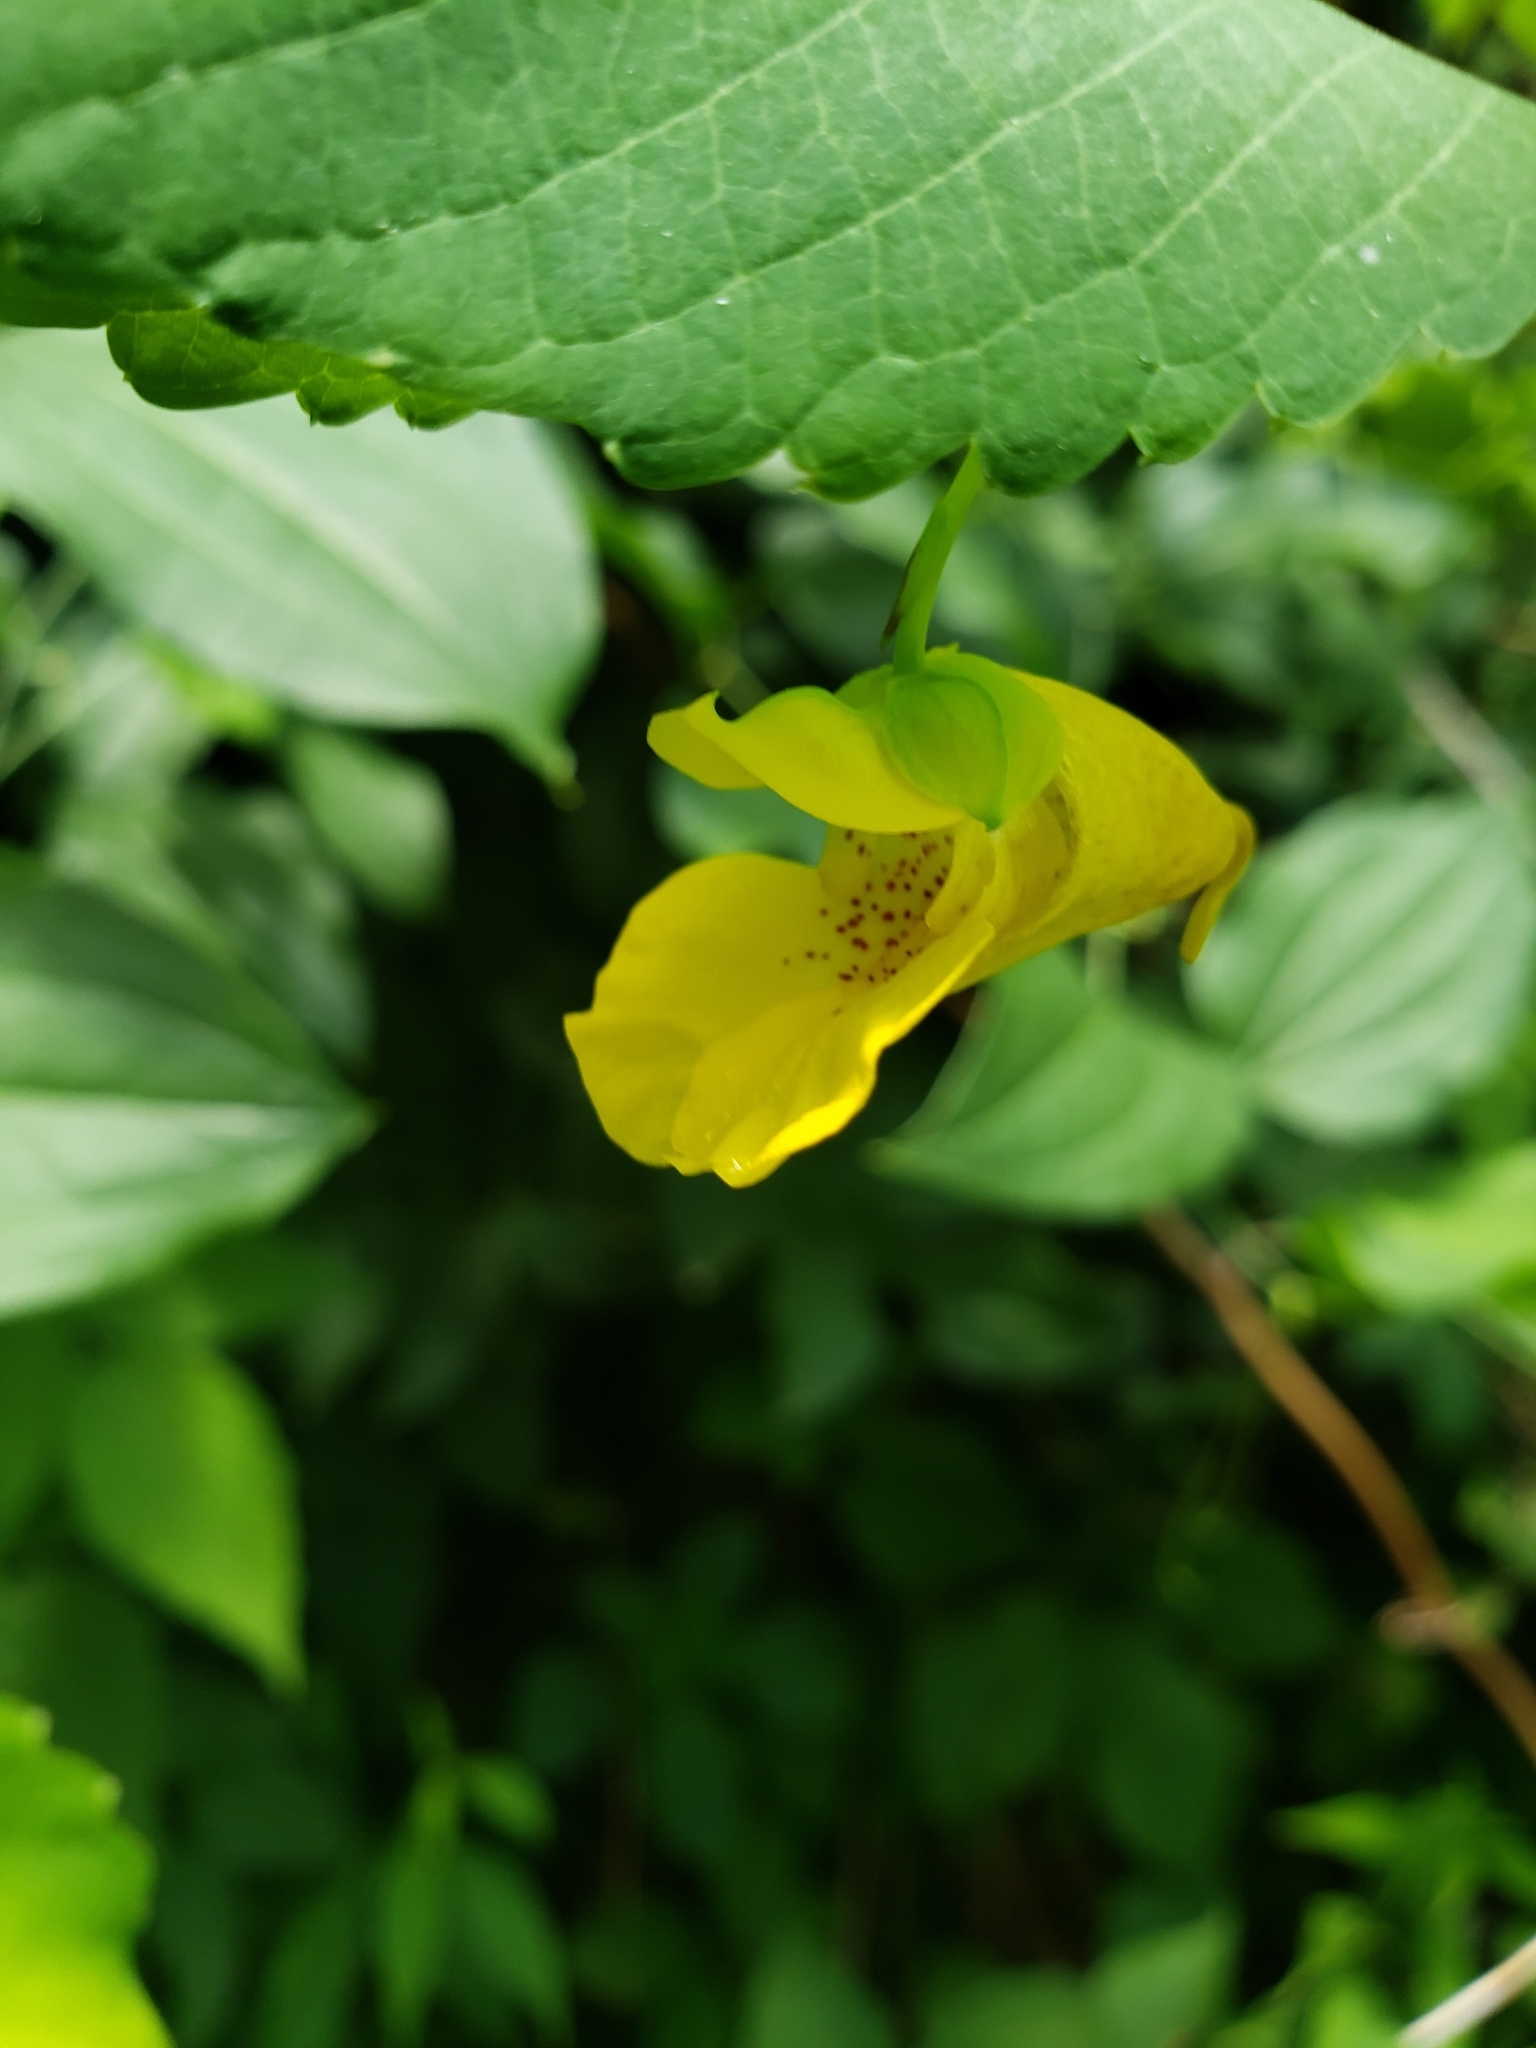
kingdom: Plantae
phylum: Tracheophyta
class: Magnoliopsida
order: Ericales
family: Balsaminaceae
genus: Impatiens
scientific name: Impatiens pallida
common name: Pale snapweed
